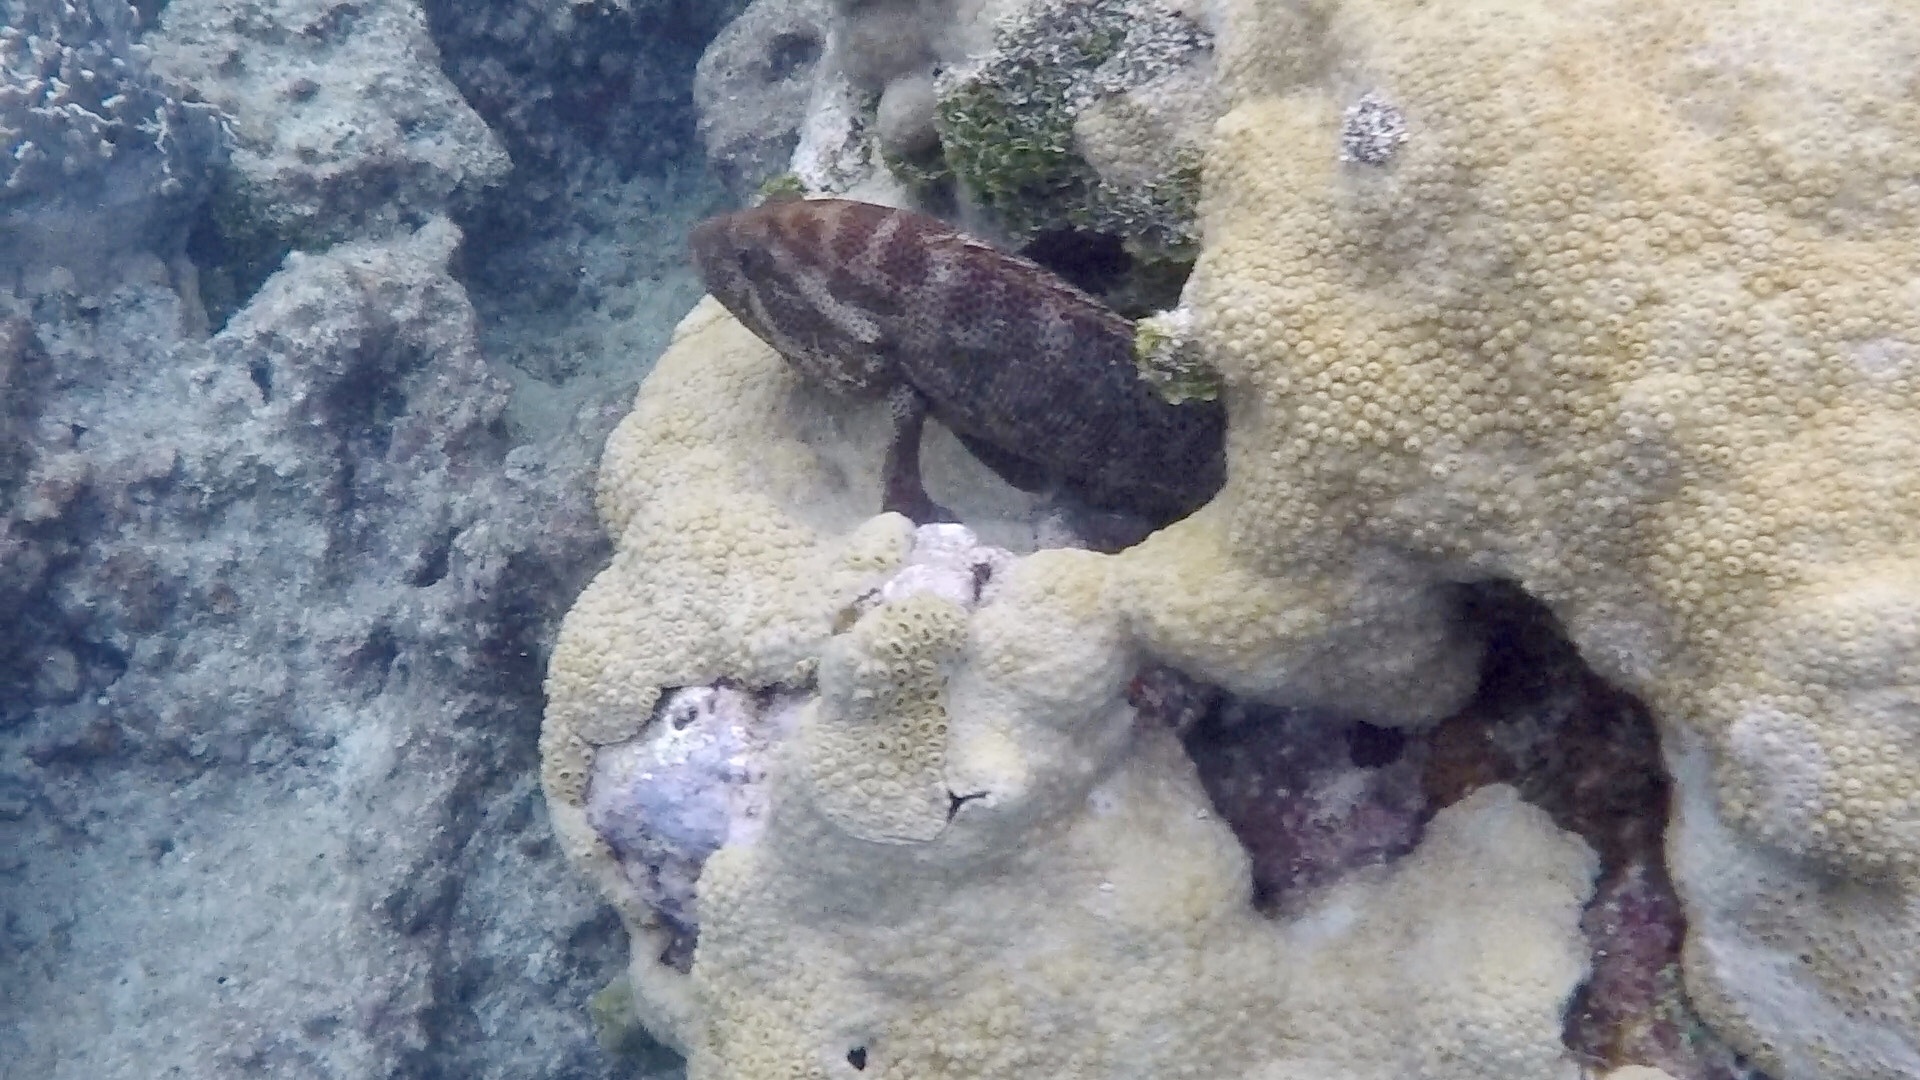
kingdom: Animalia
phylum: Chordata
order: Perciformes
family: Serranidae
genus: Cephalopholis
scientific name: Cephalopholis cruentata
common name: Graysby
